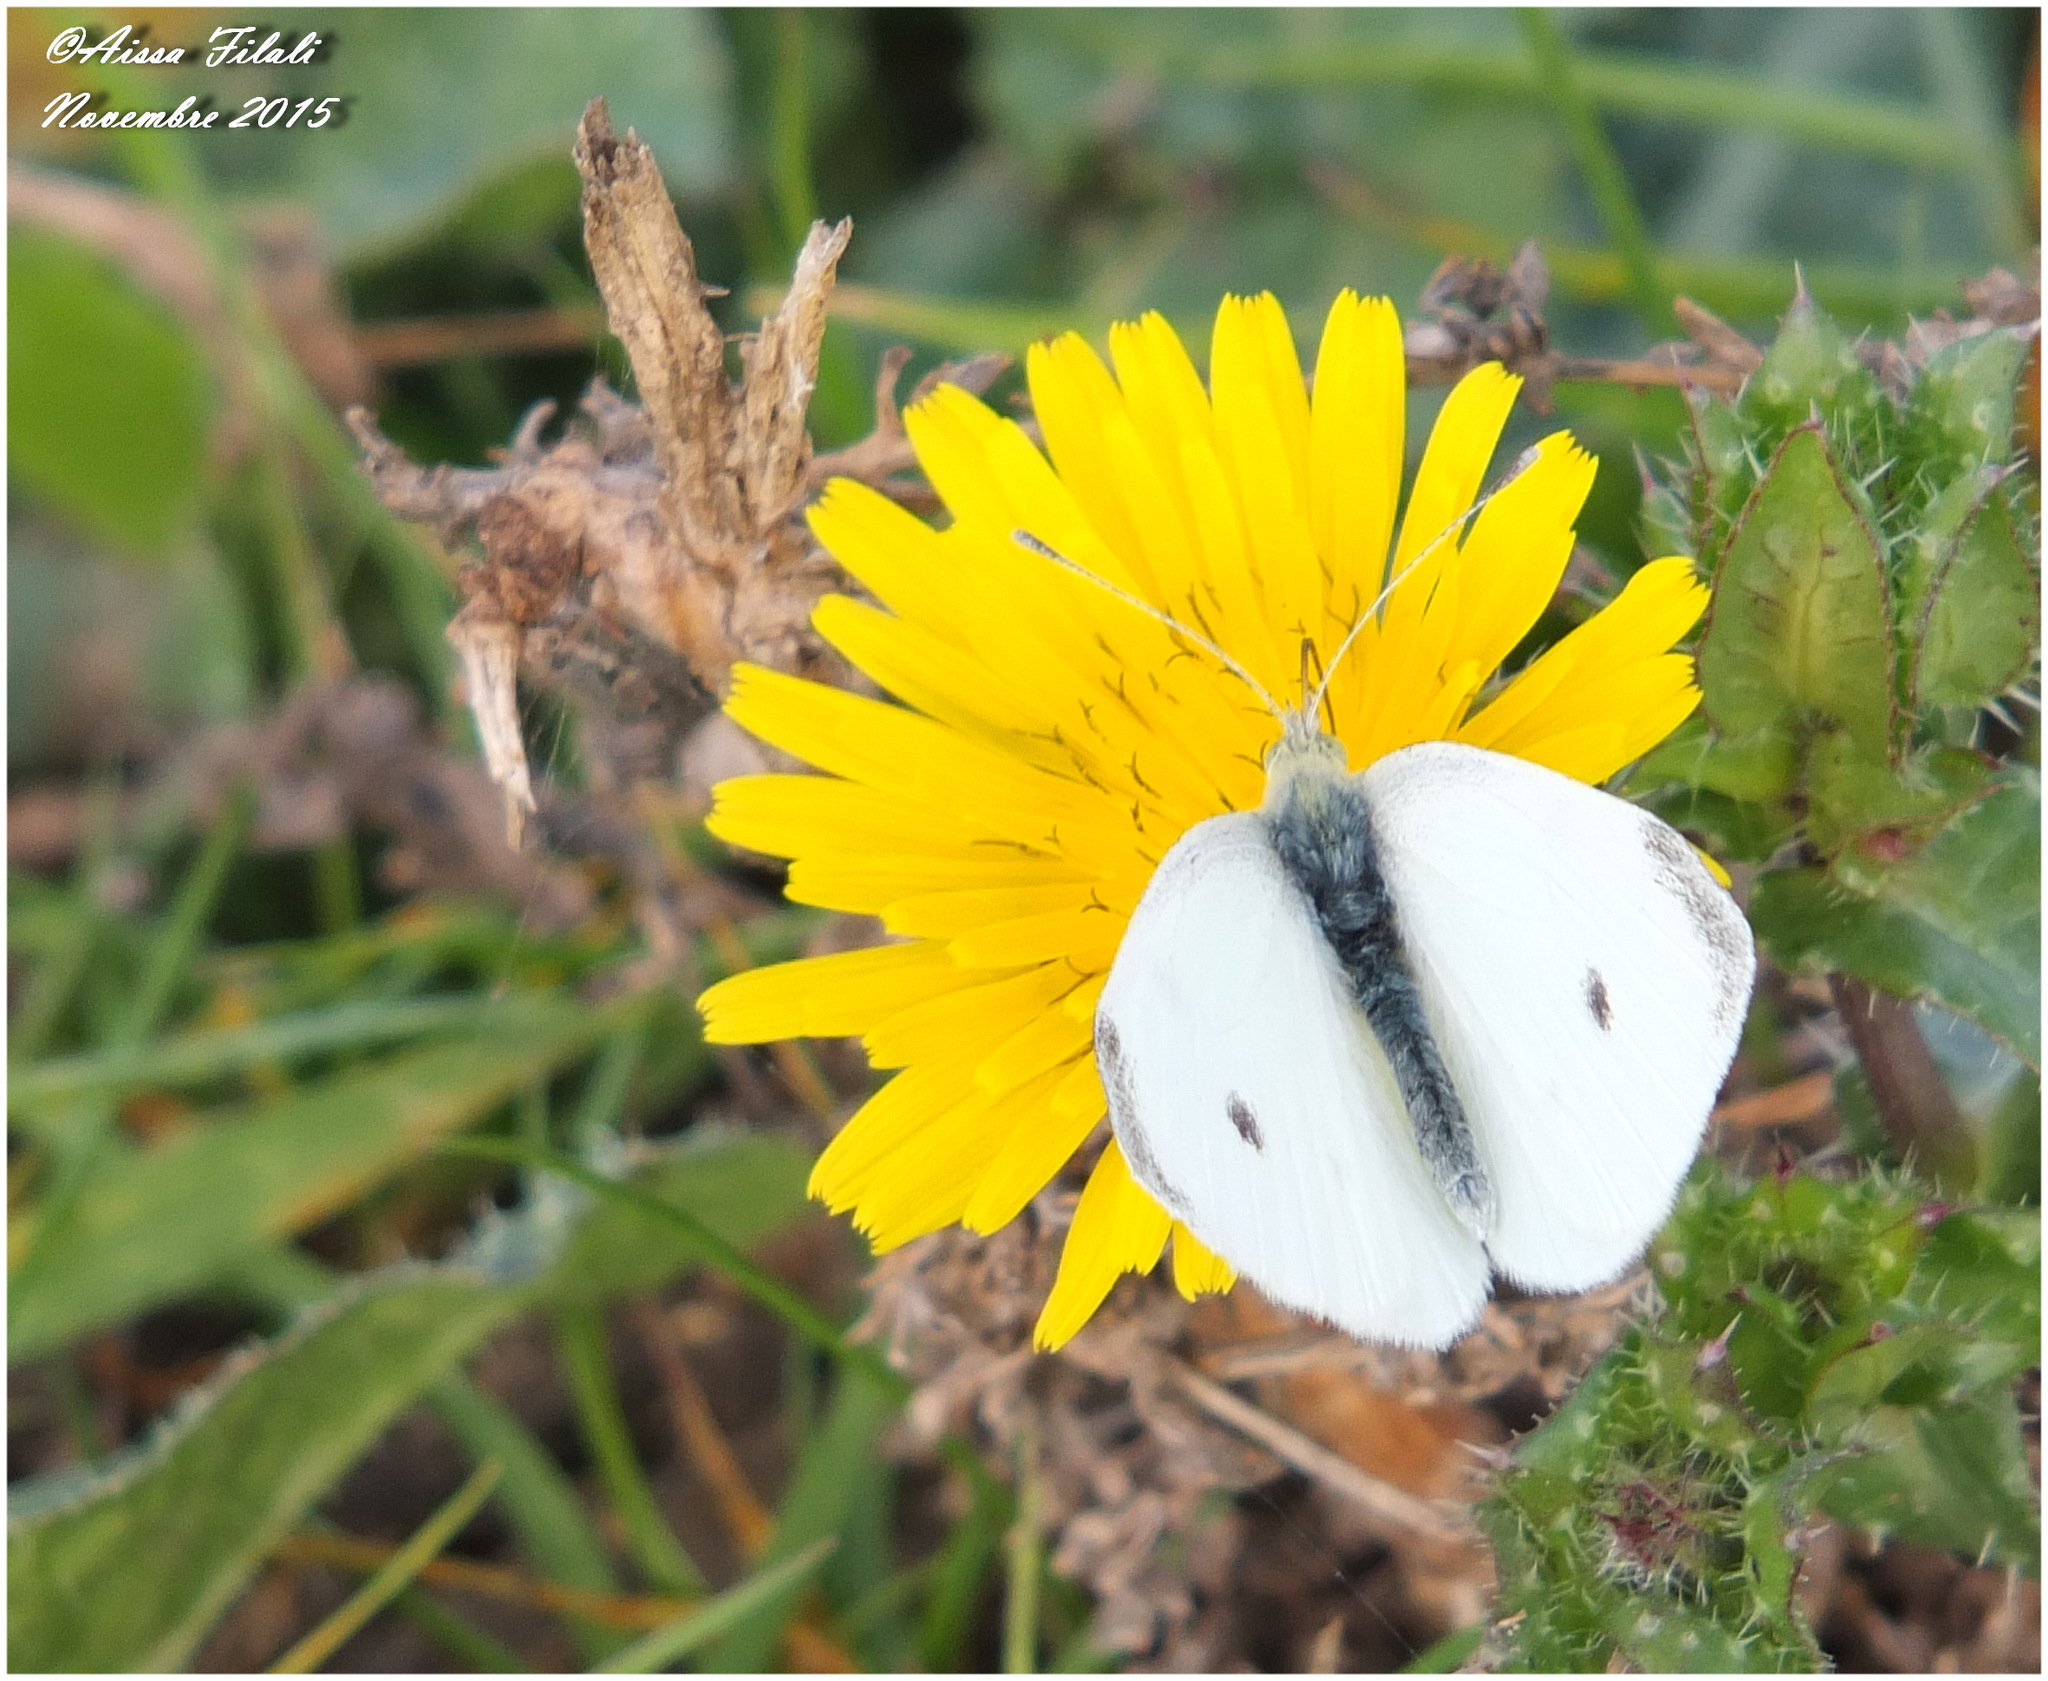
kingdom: Animalia
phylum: Arthropoda
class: Insecta
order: Lepidoptera
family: Pieridae
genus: Pieris
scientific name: Pieris rapae
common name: Small white
